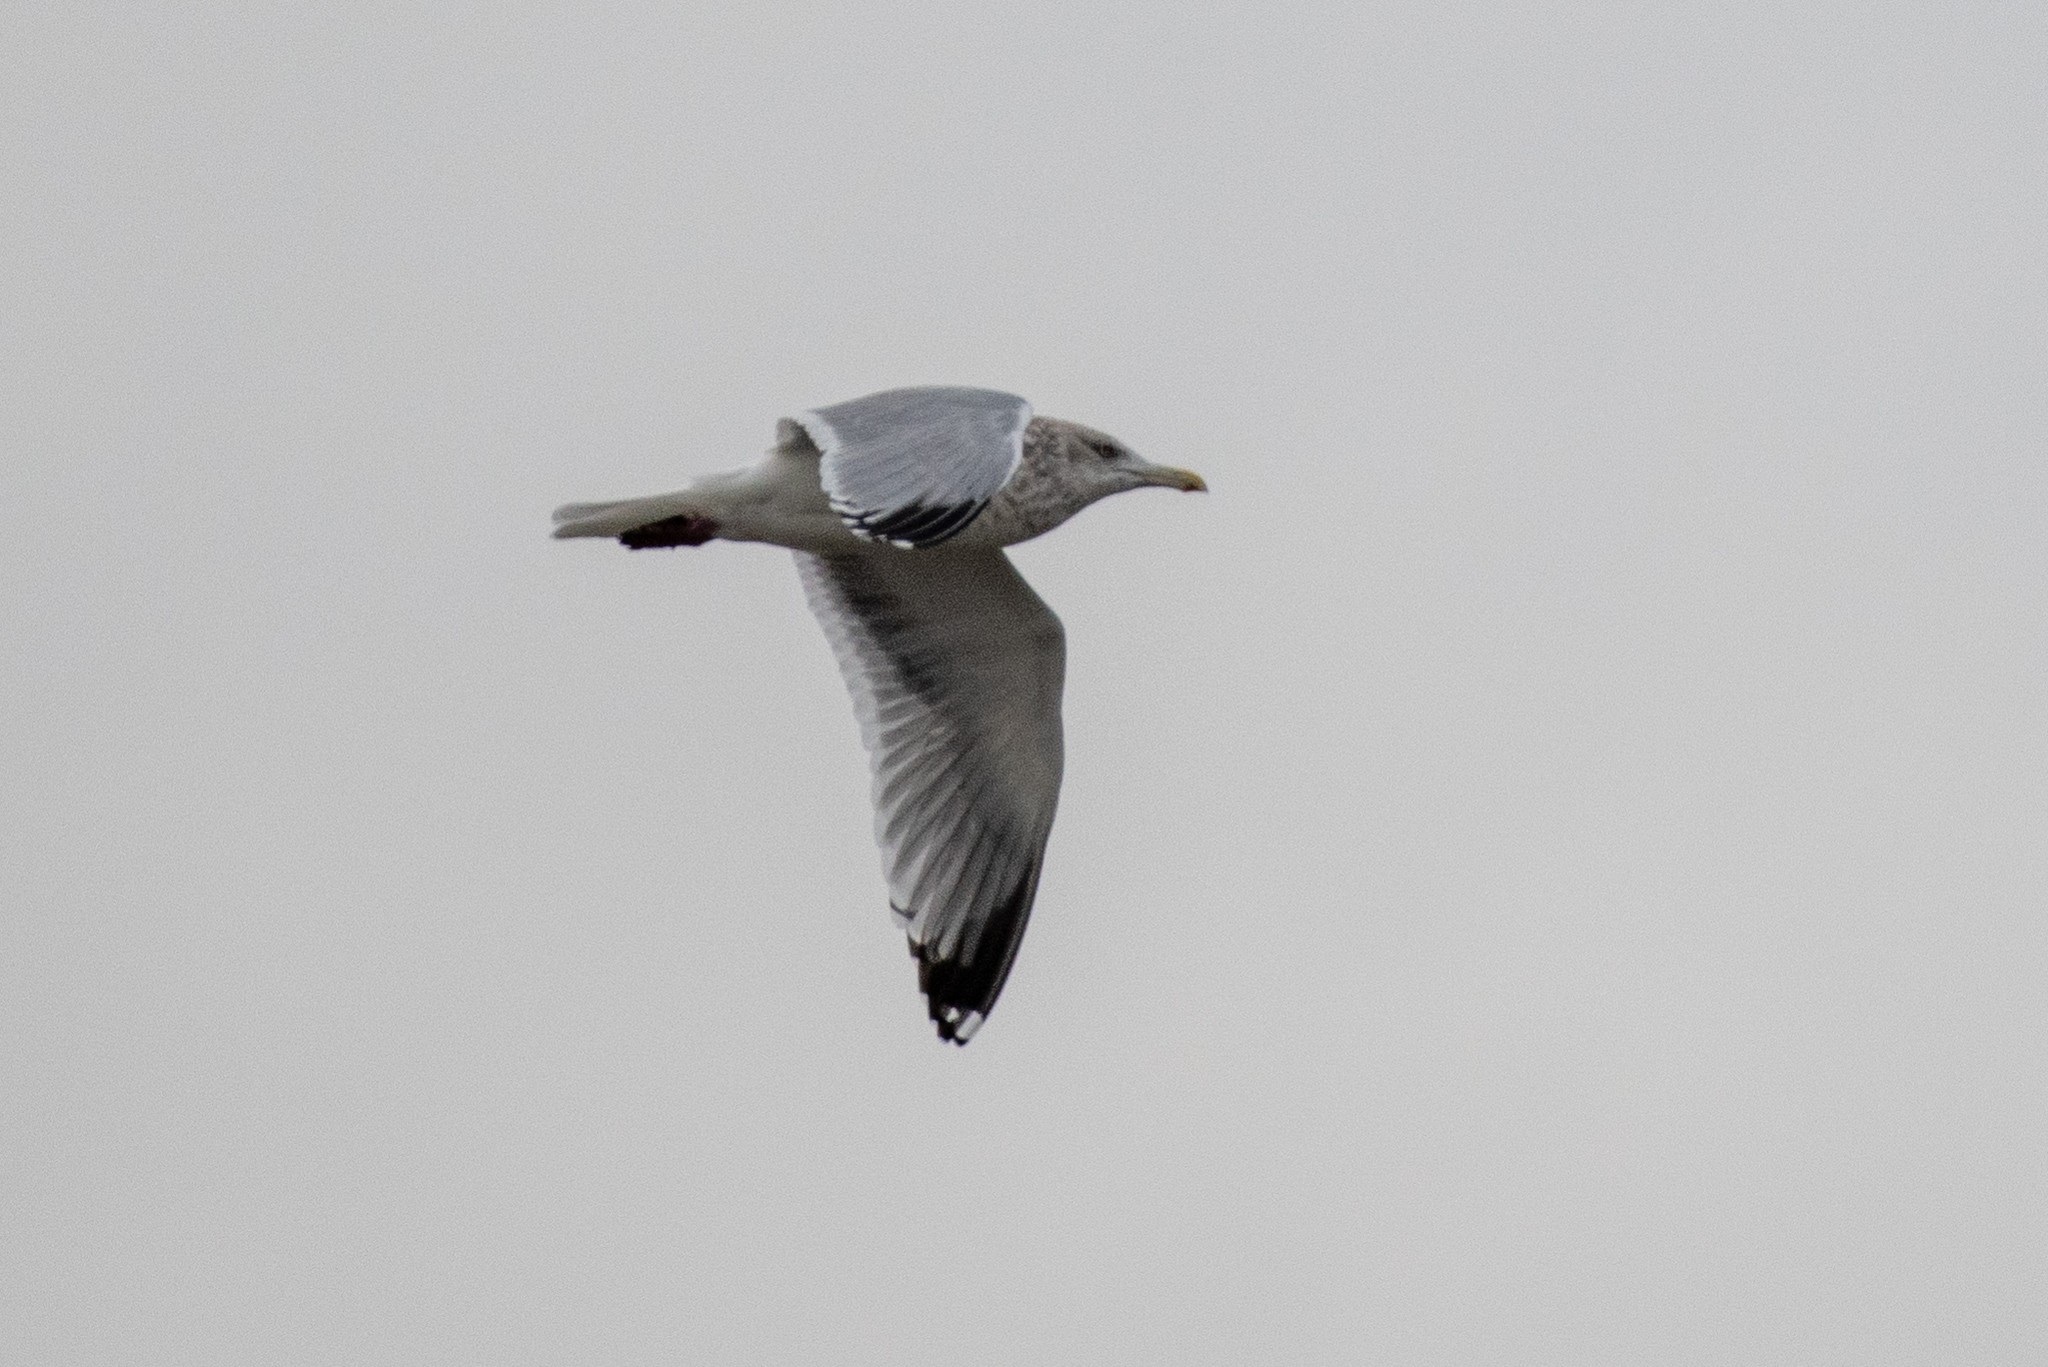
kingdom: Animalia
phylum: Chordata
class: Aves
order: Charadriiformes
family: Laridae
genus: Larus
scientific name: Larus argentatus
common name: Herring gull
